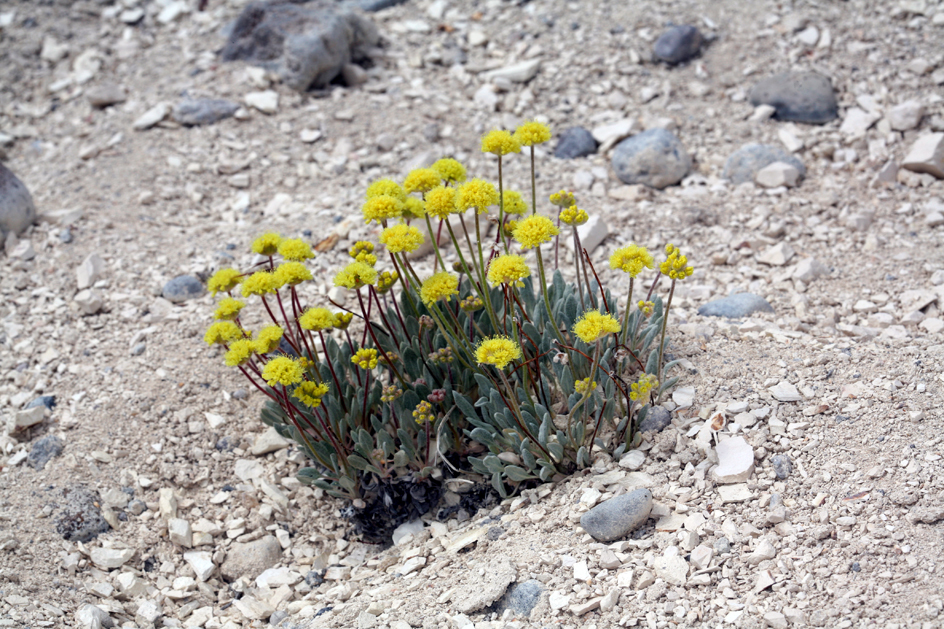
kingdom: Plantae
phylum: Tracheophyta
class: Magnoliopsida
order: Caryophyllales
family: Polygonaceae
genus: Eriogonum
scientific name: Eriogonum alexanderae
